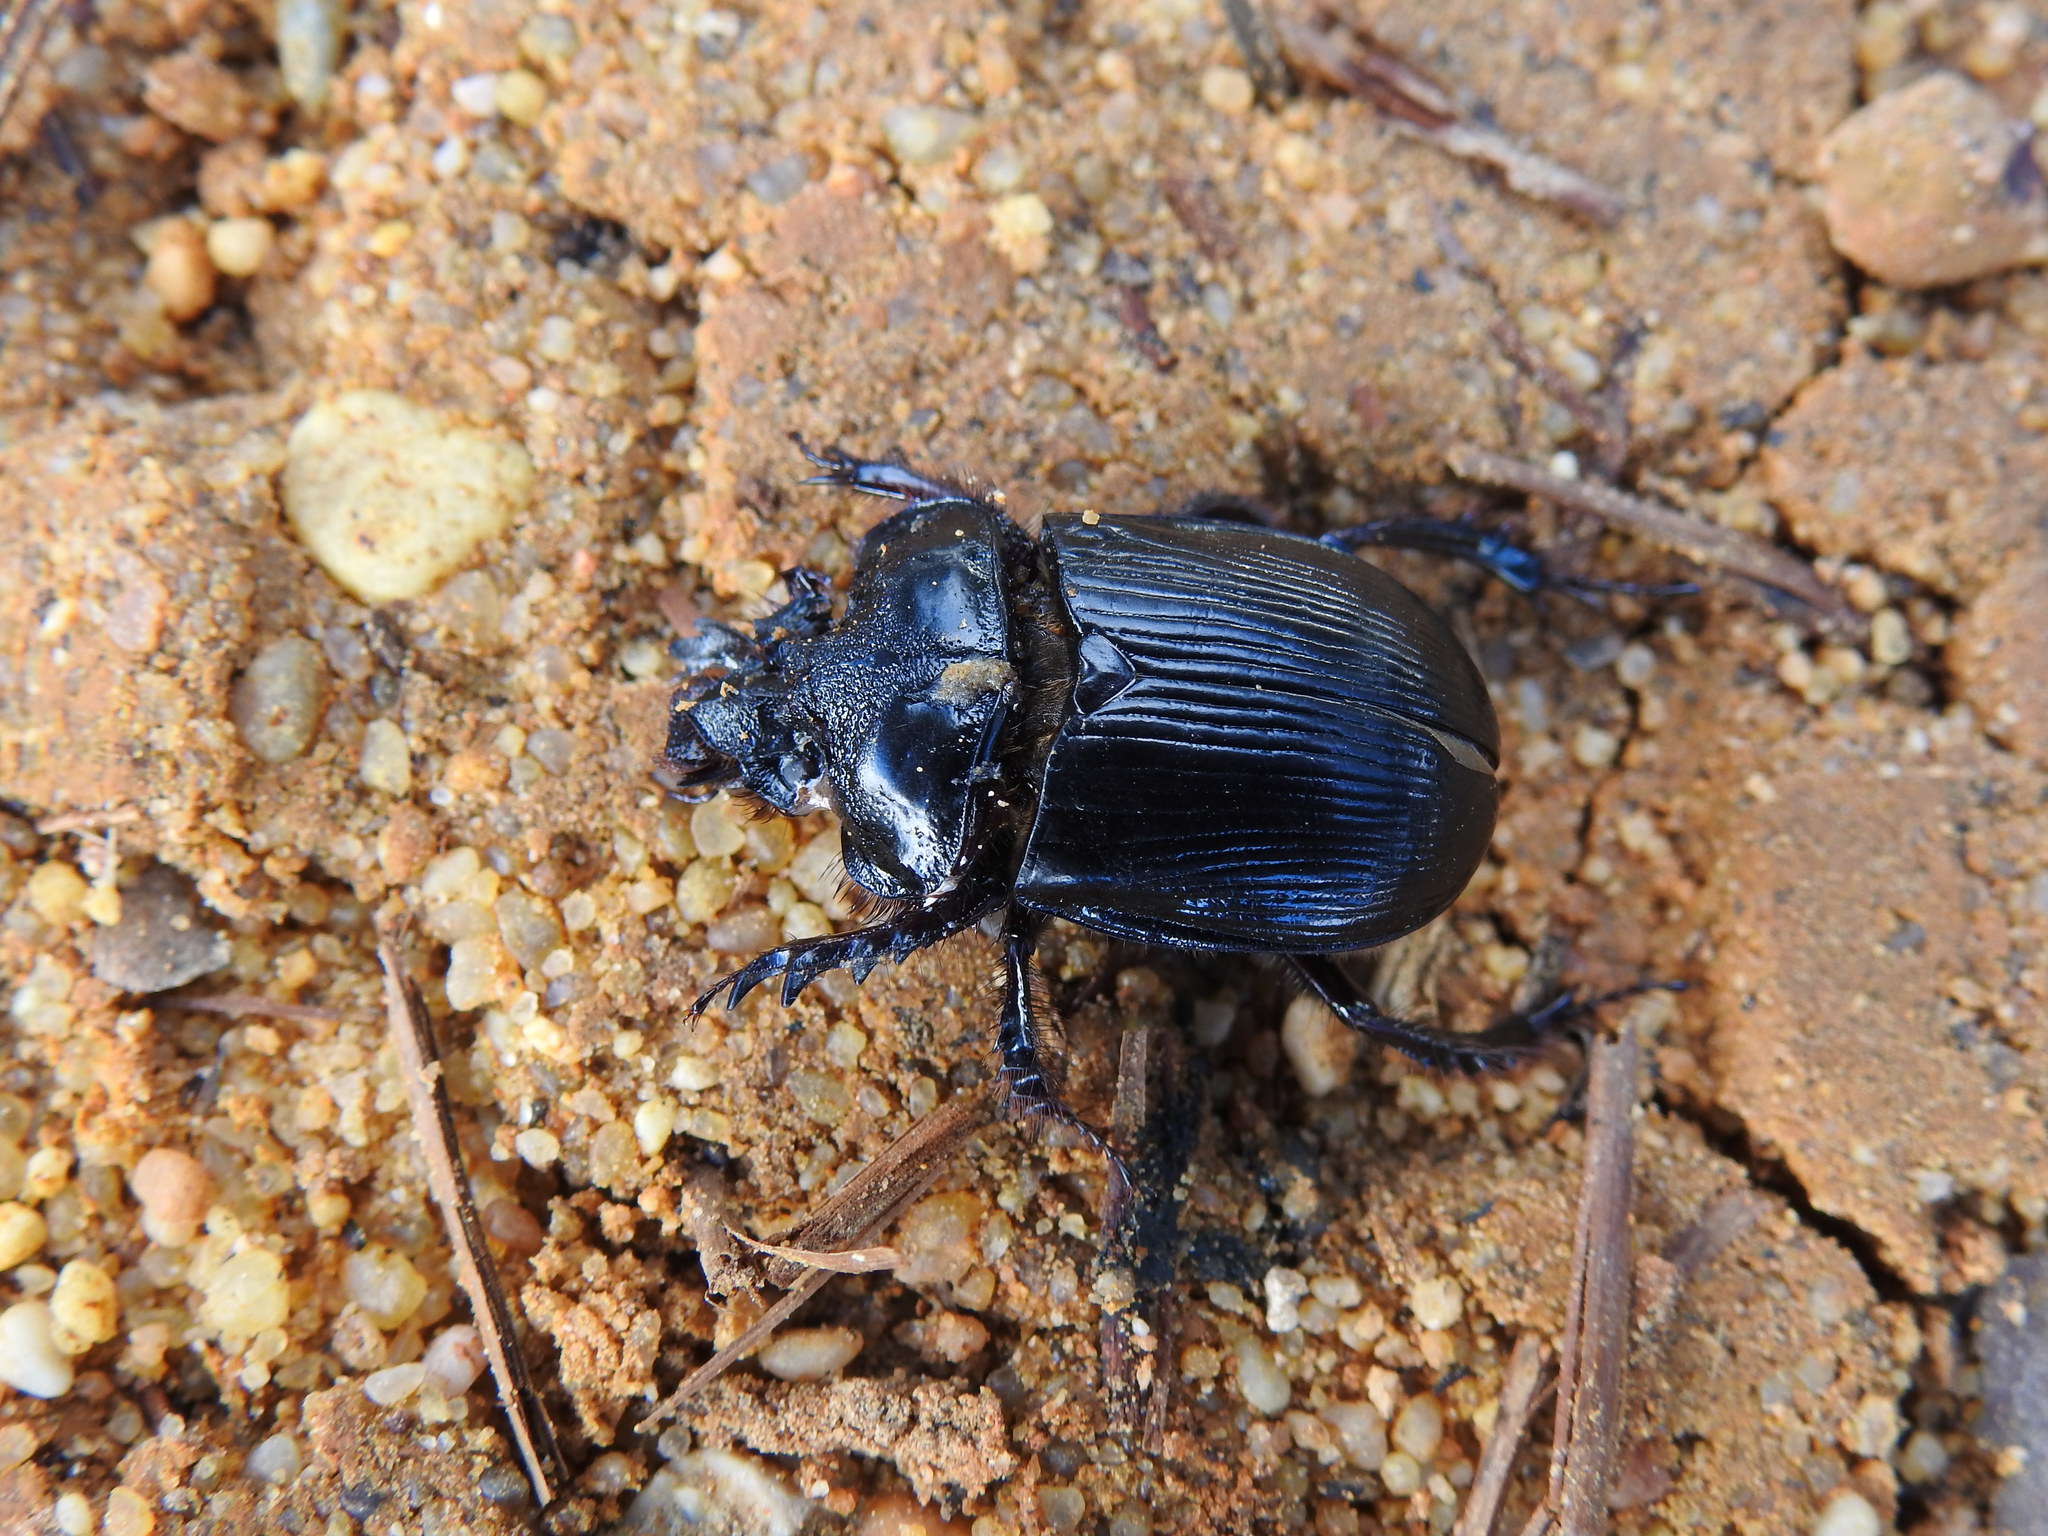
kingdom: Animalia
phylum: Arthropoda
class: Insecta
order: Coleoptera
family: Geotrupidae
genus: Ceratophyus
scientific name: Ceratophyus hoffmannseggi
